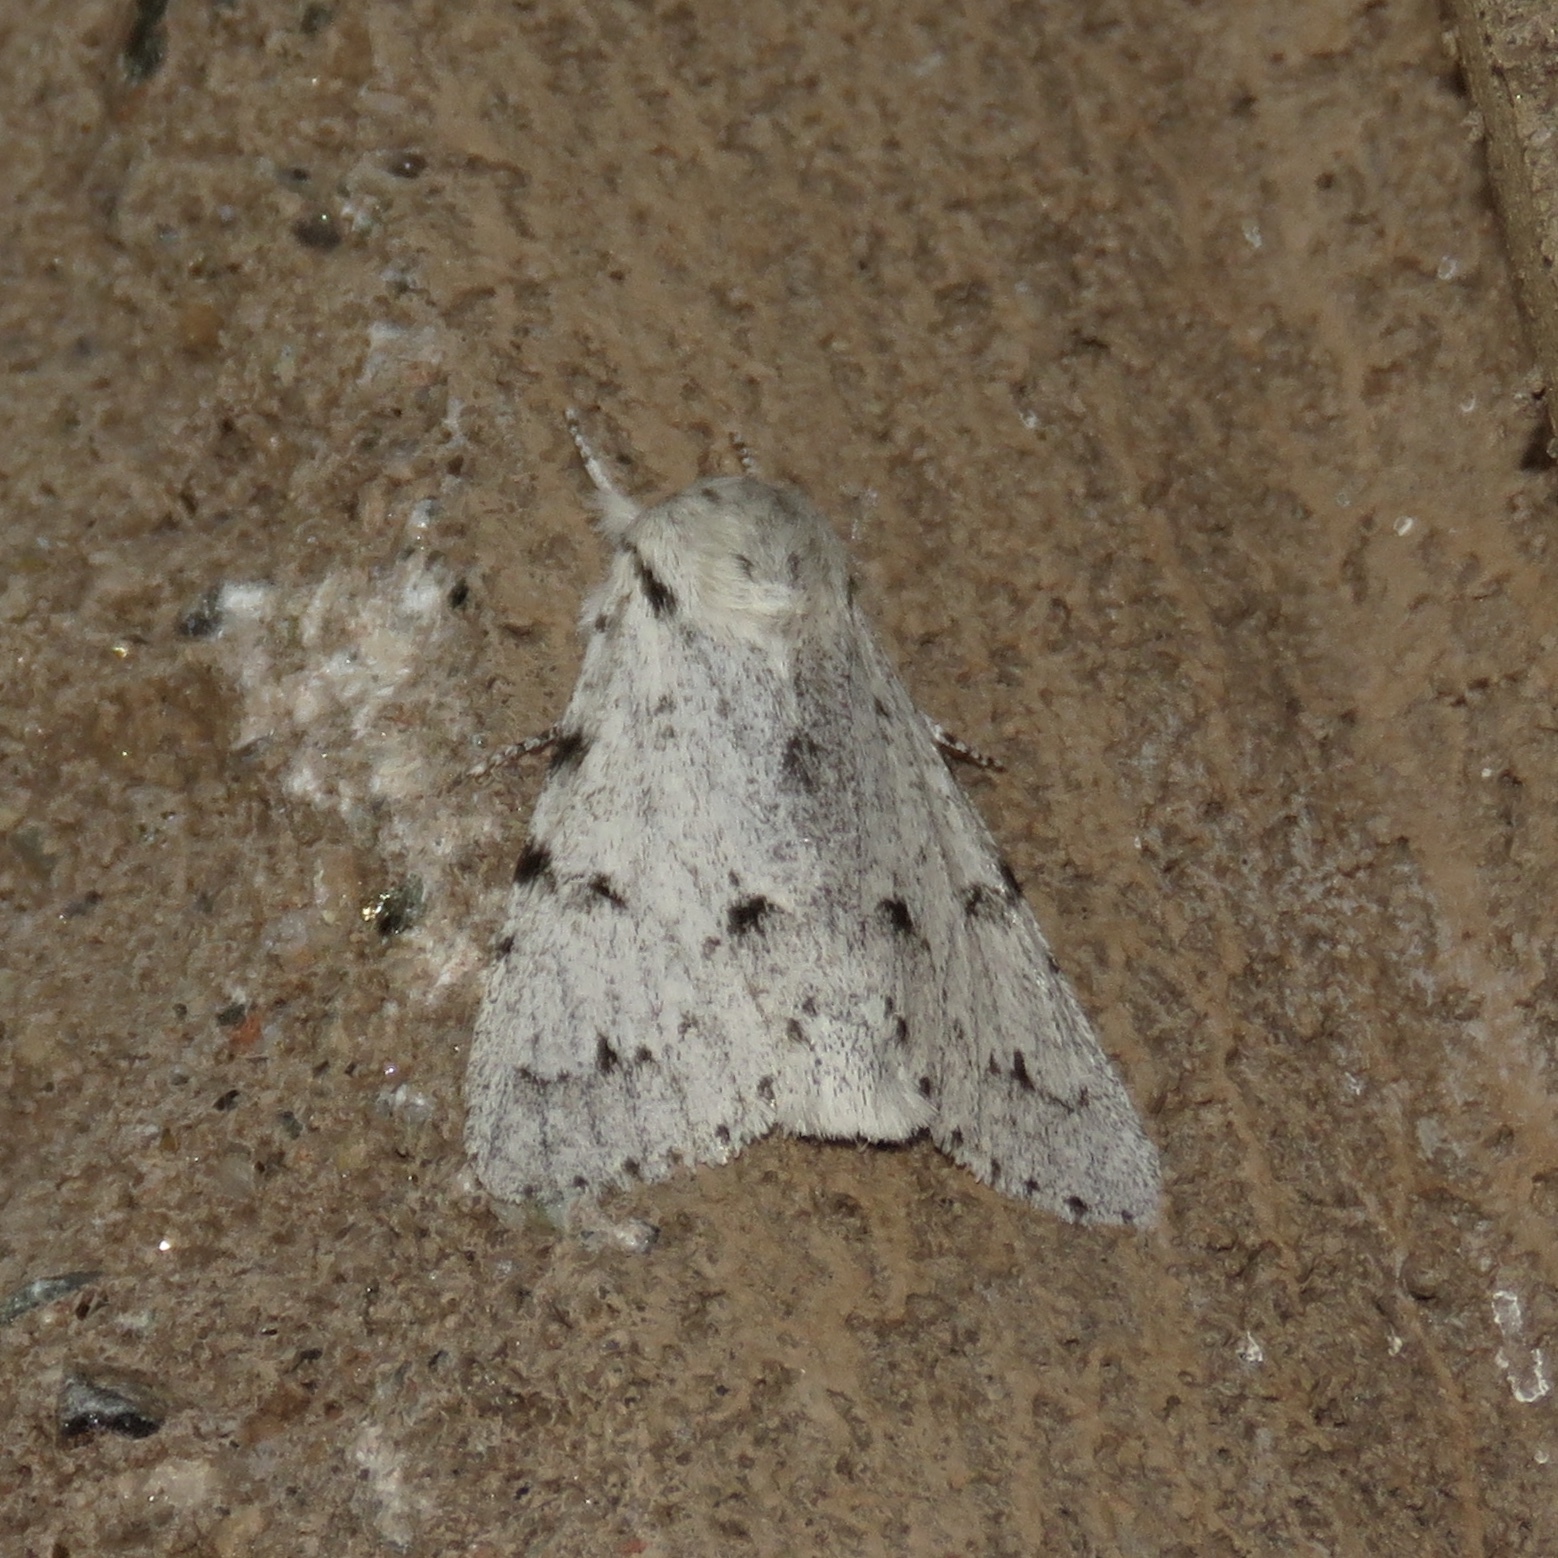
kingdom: Animalia
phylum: Arthropoda
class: Insecta
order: Lepidoptera
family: Noctuidae
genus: Acronicta
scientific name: Acronicta lepusculina
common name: Cottonwood dagger
